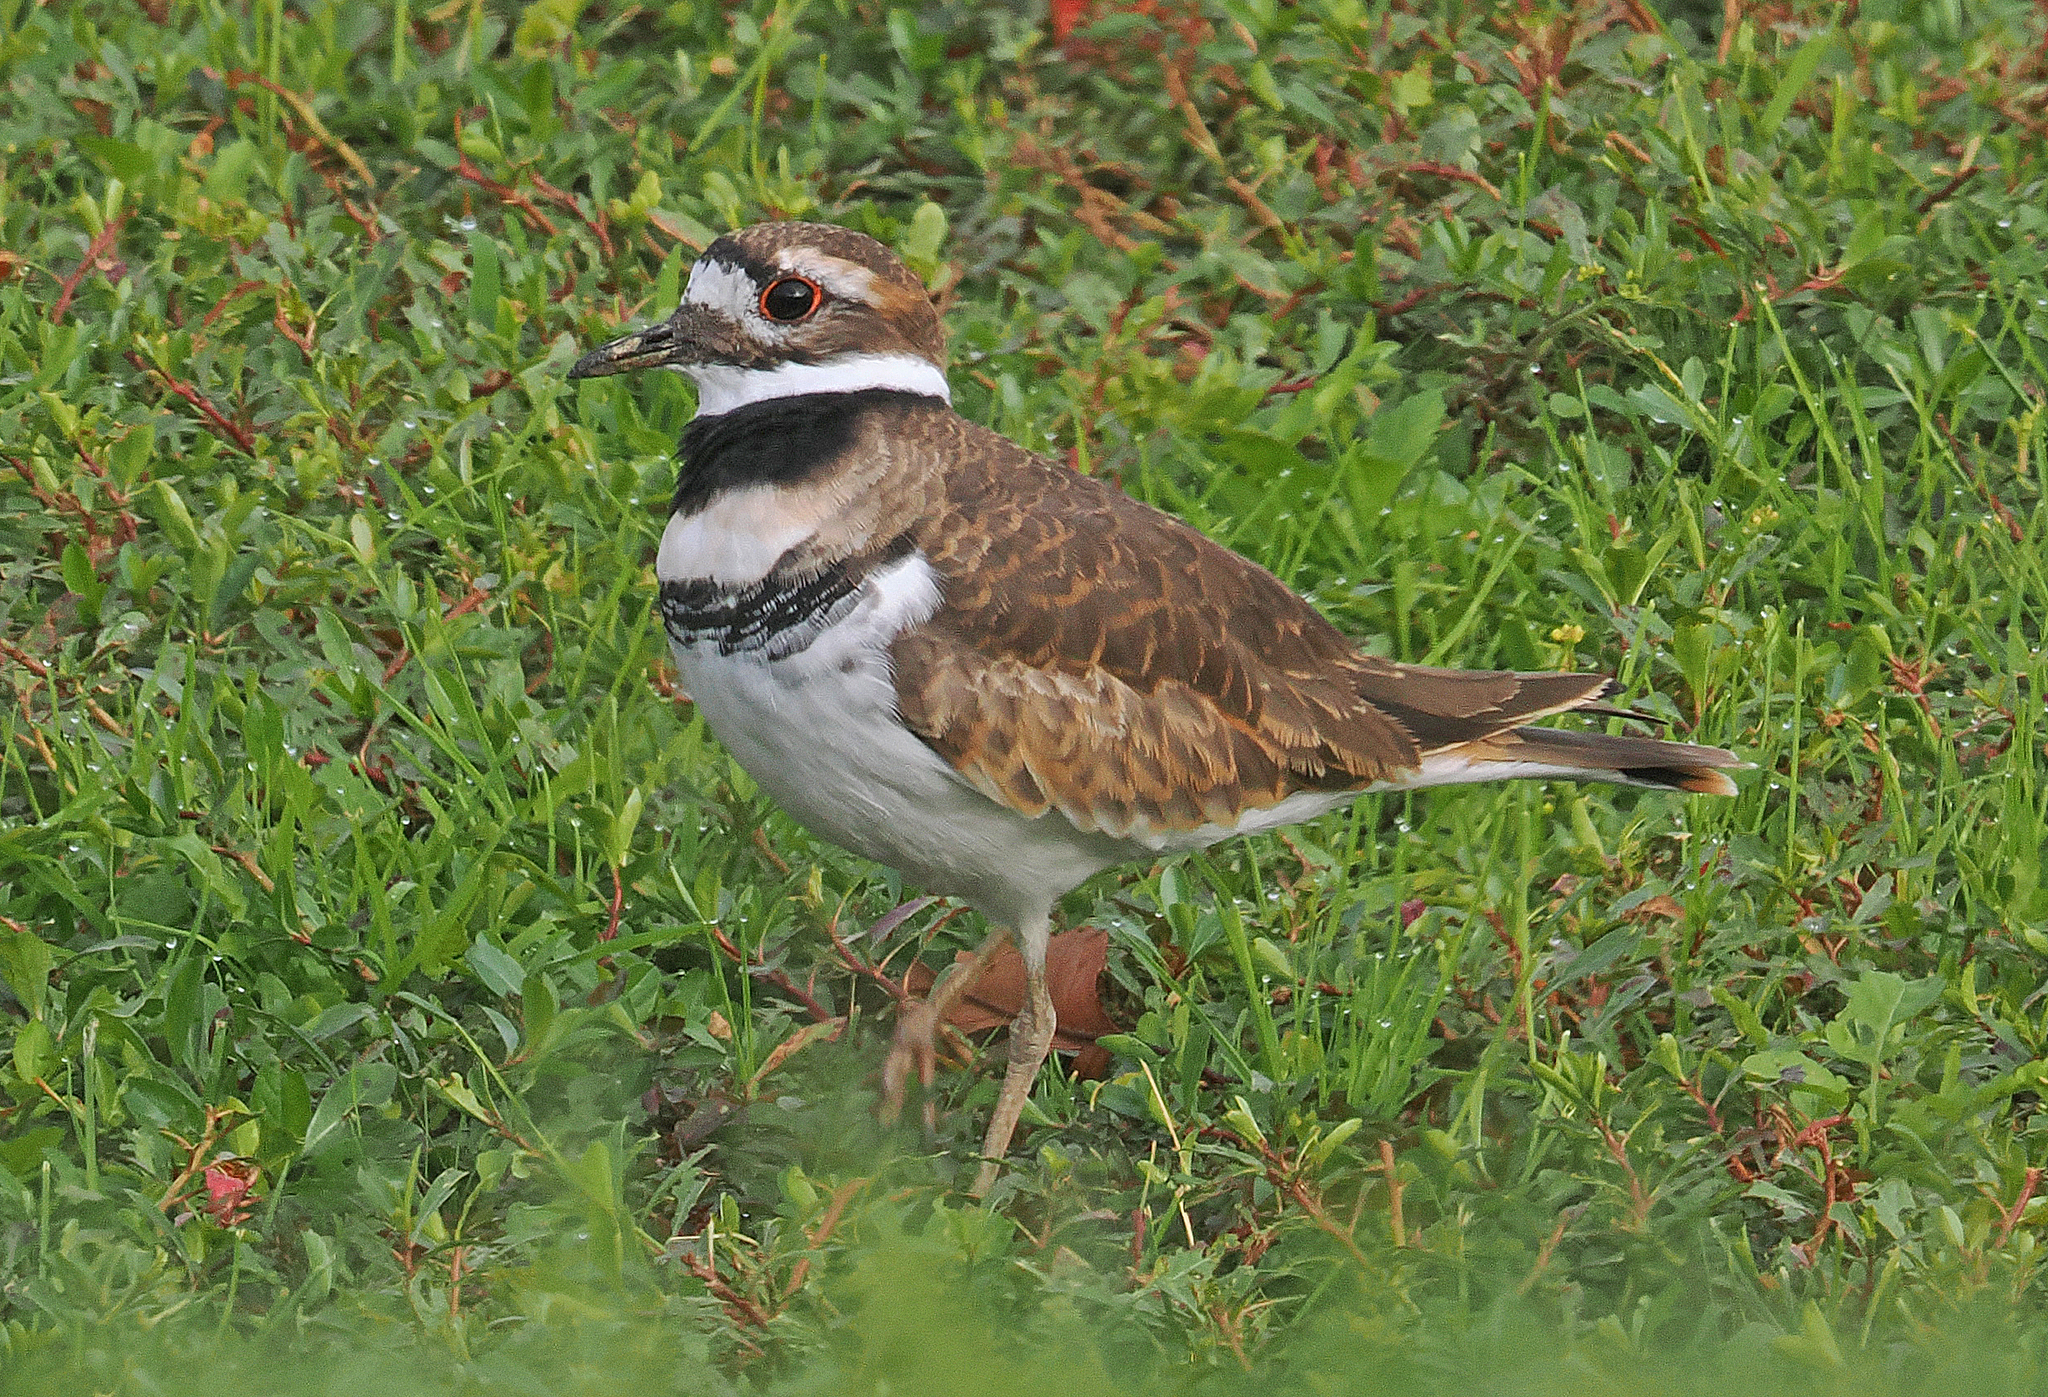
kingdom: Animalia
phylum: Chordata
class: Aves
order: Charadriiformes
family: Charadriidae
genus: Charadrius
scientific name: Charadrius vociferus
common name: Killdeer
